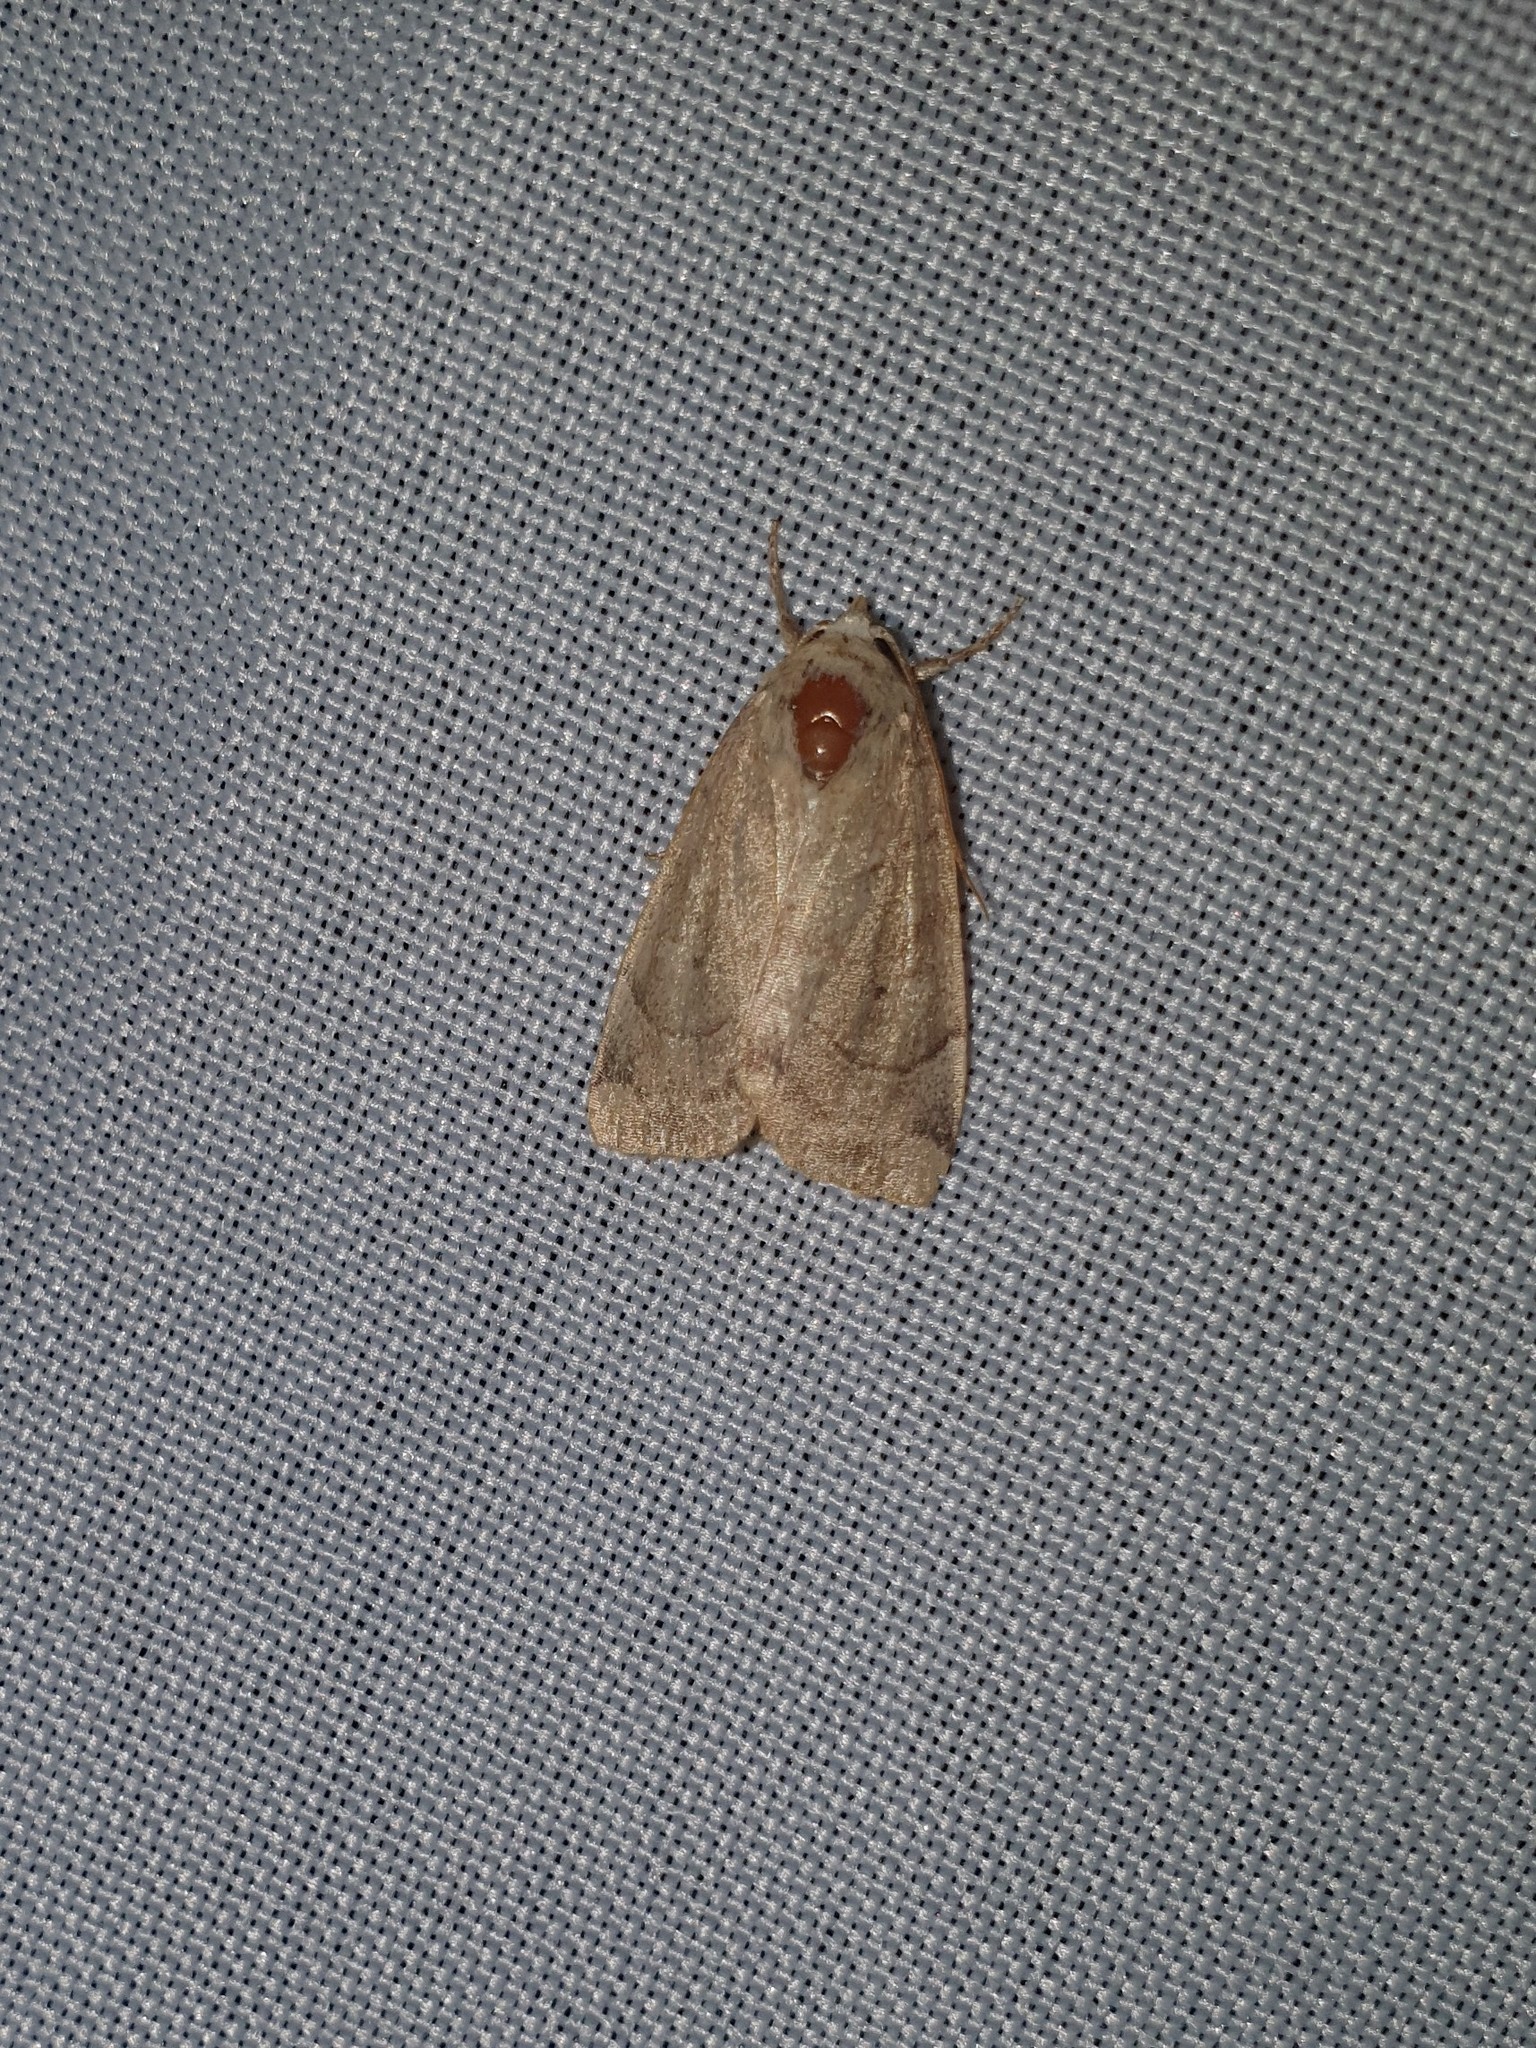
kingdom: Animalia
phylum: Arthropoda
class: Insecta
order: Lepidoptera
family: Noctuidae
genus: Cosmia
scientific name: Cosmia trapezina
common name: Dun-bar
